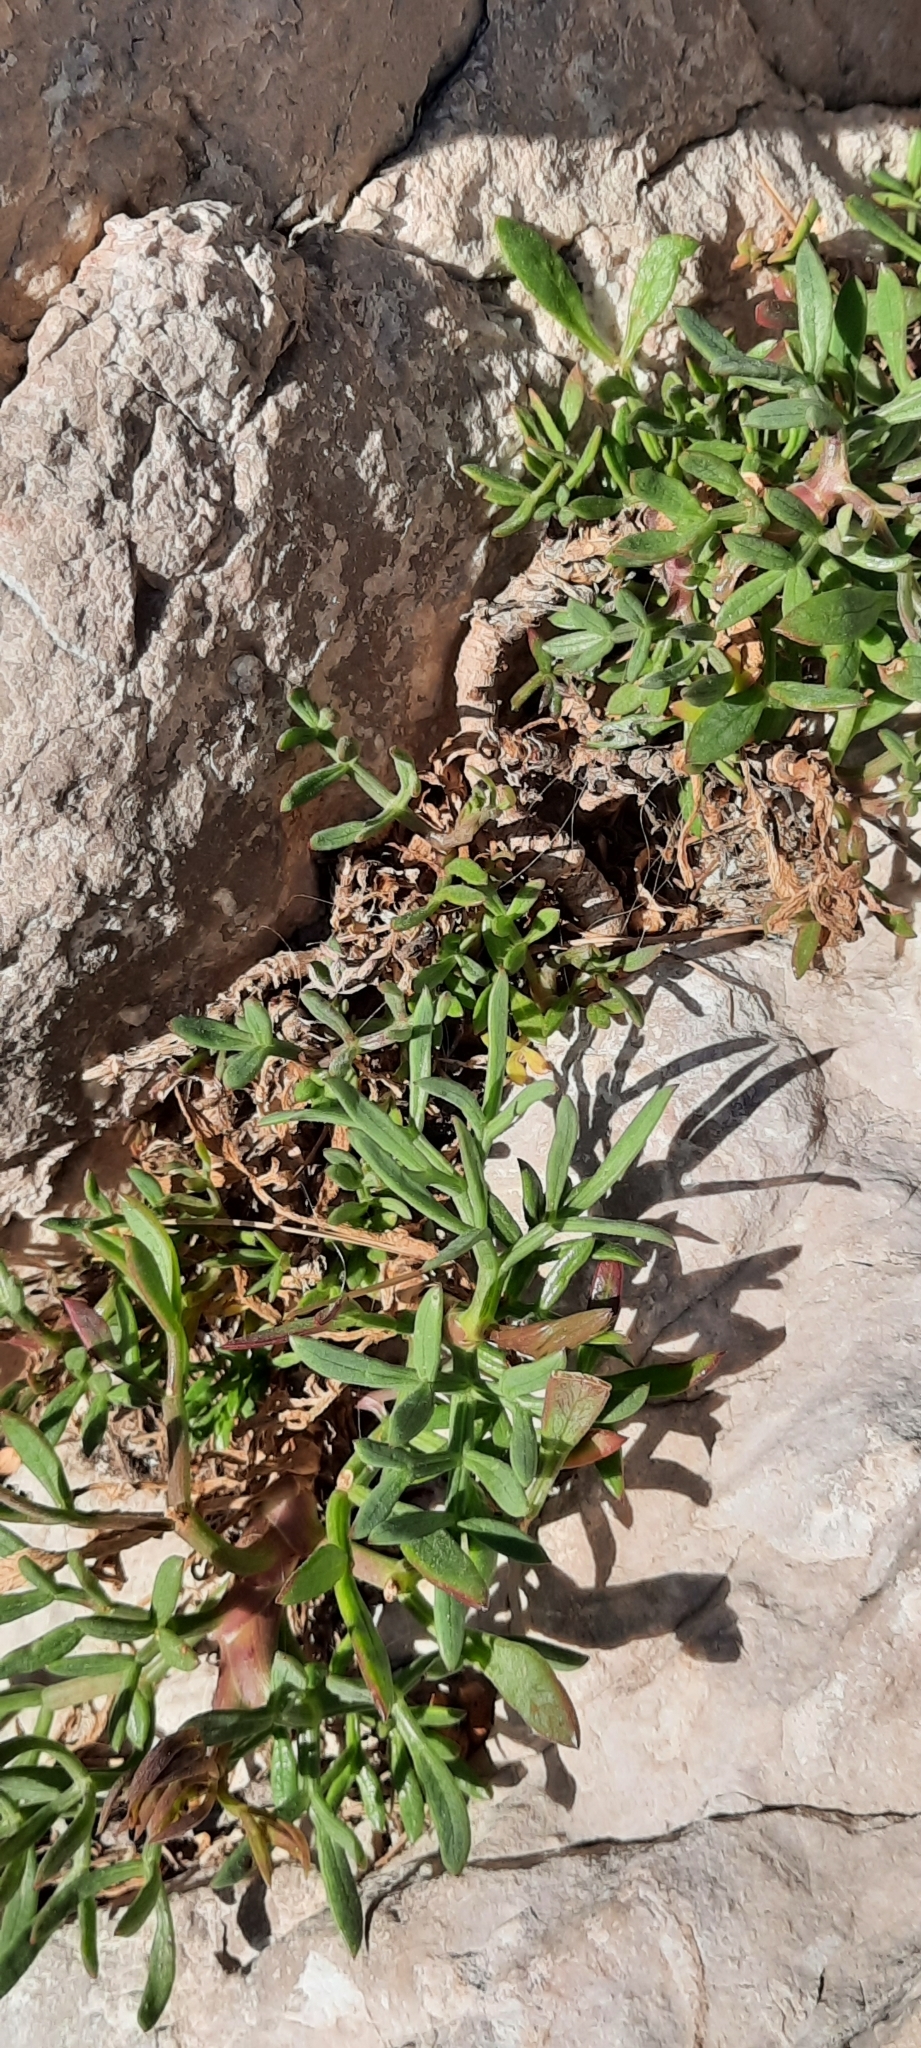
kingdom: Plantae
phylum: Tracheophyta
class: Magnoliopsida
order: Apiales
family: Apiaceae
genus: Crithmum
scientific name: Crithmum maritimum
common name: Rock samphire
